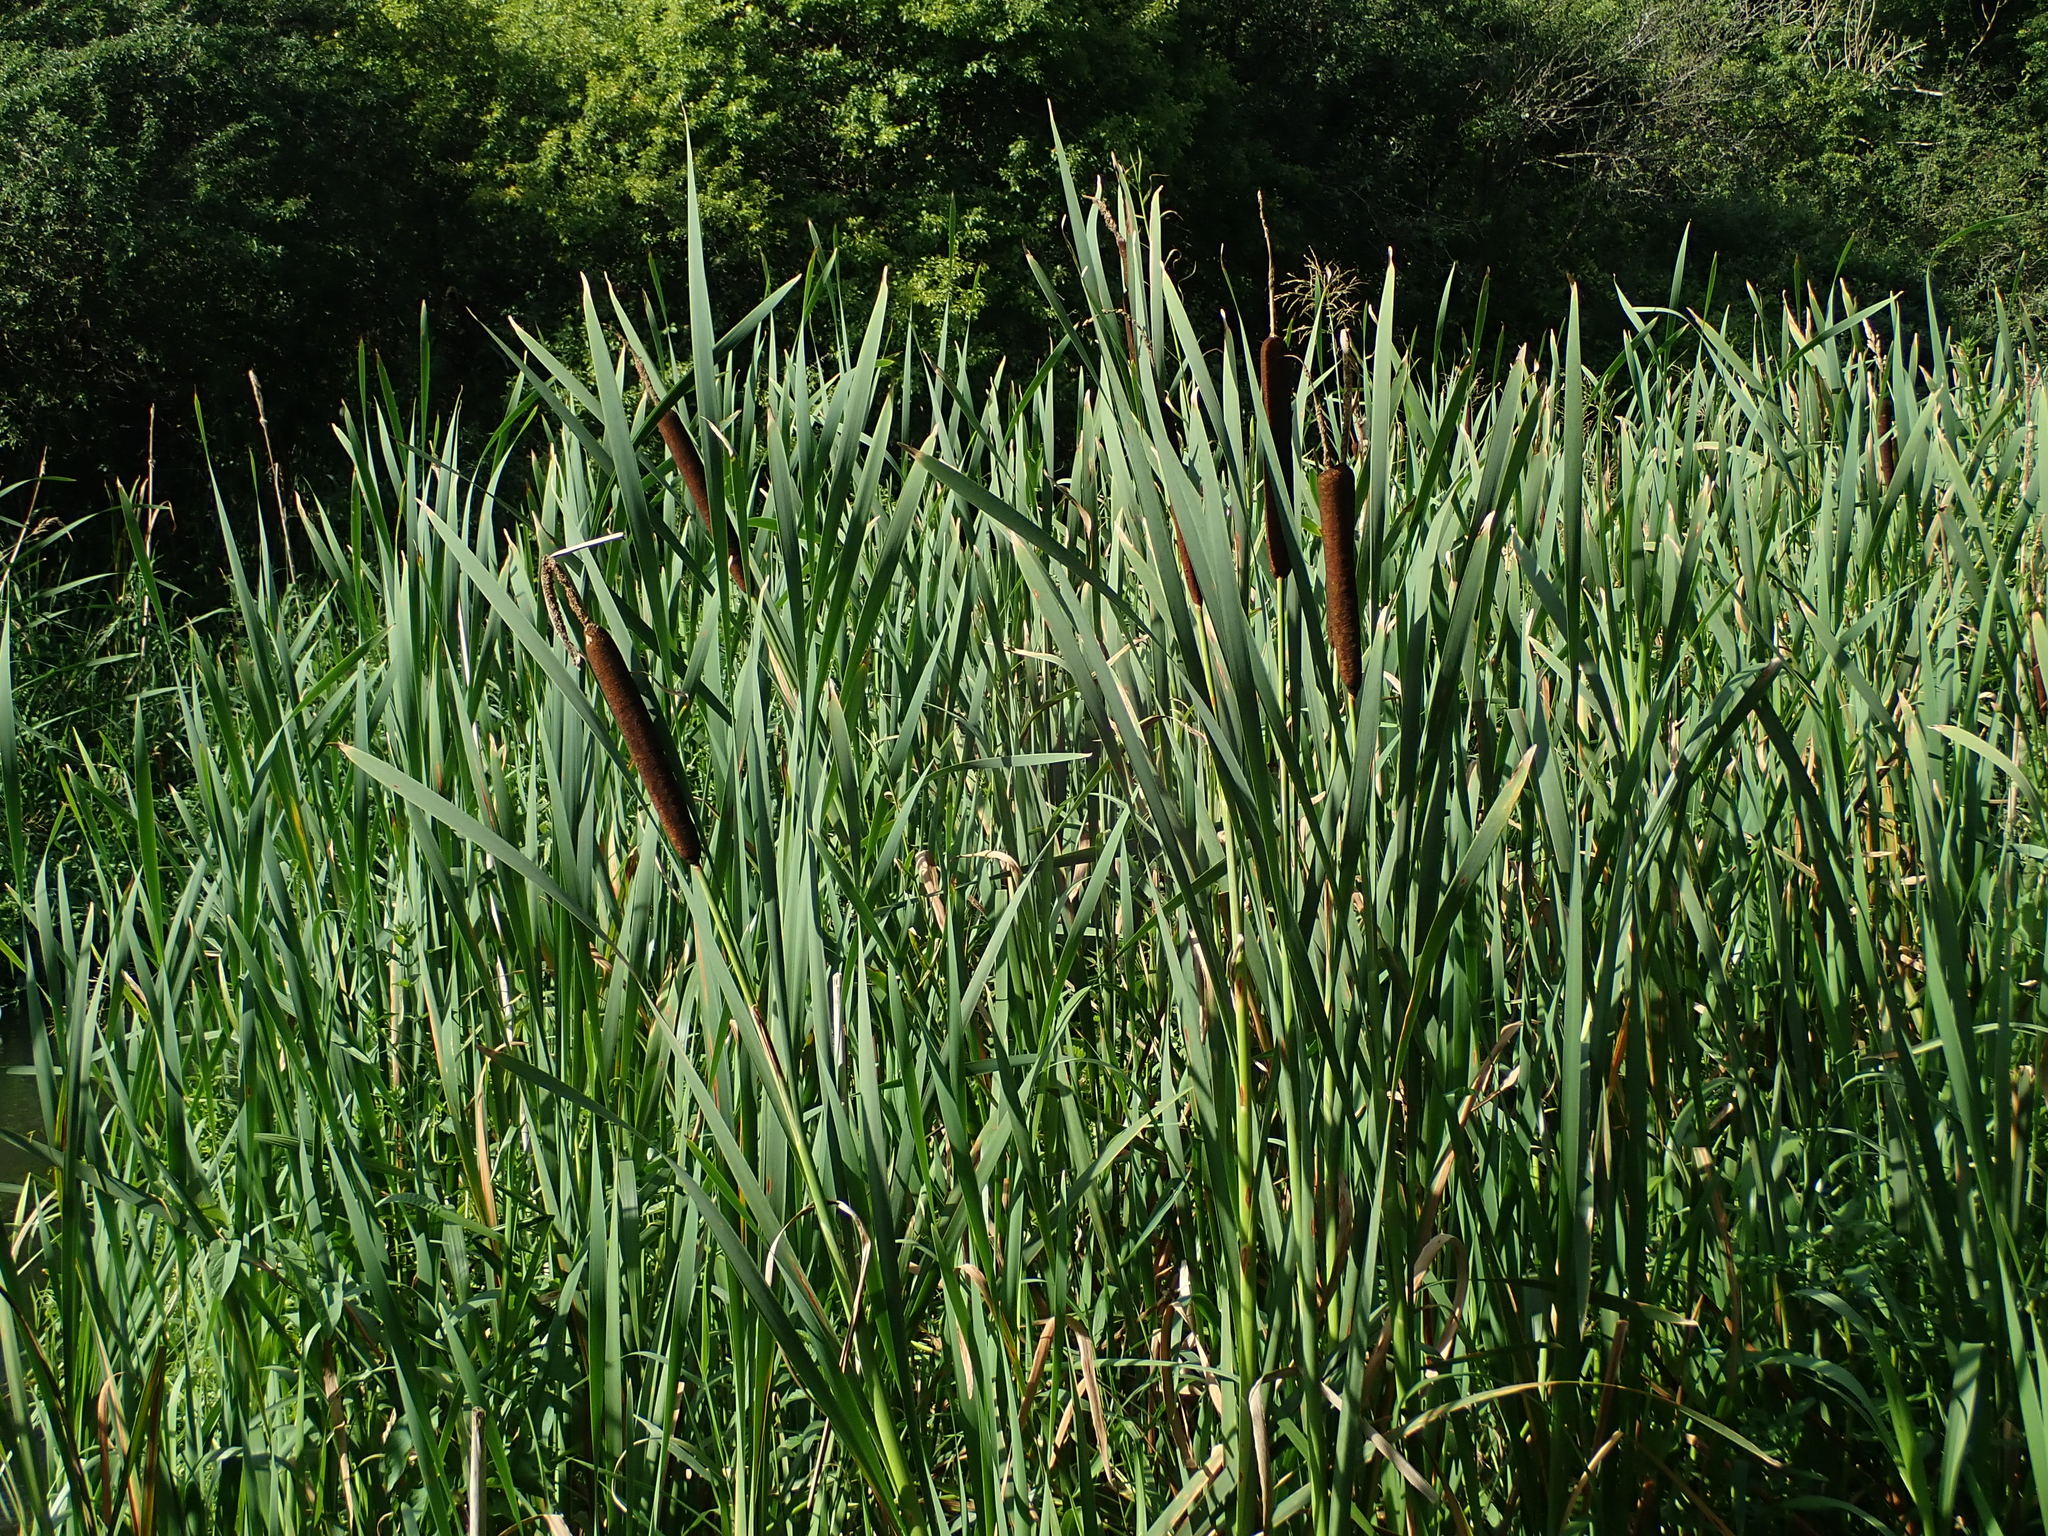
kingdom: Plantae
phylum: Tracheophyta
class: Liliopsida
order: Poales
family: Typhaceae
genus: Typha
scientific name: Typha latifolia
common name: Broadleaf cattail
